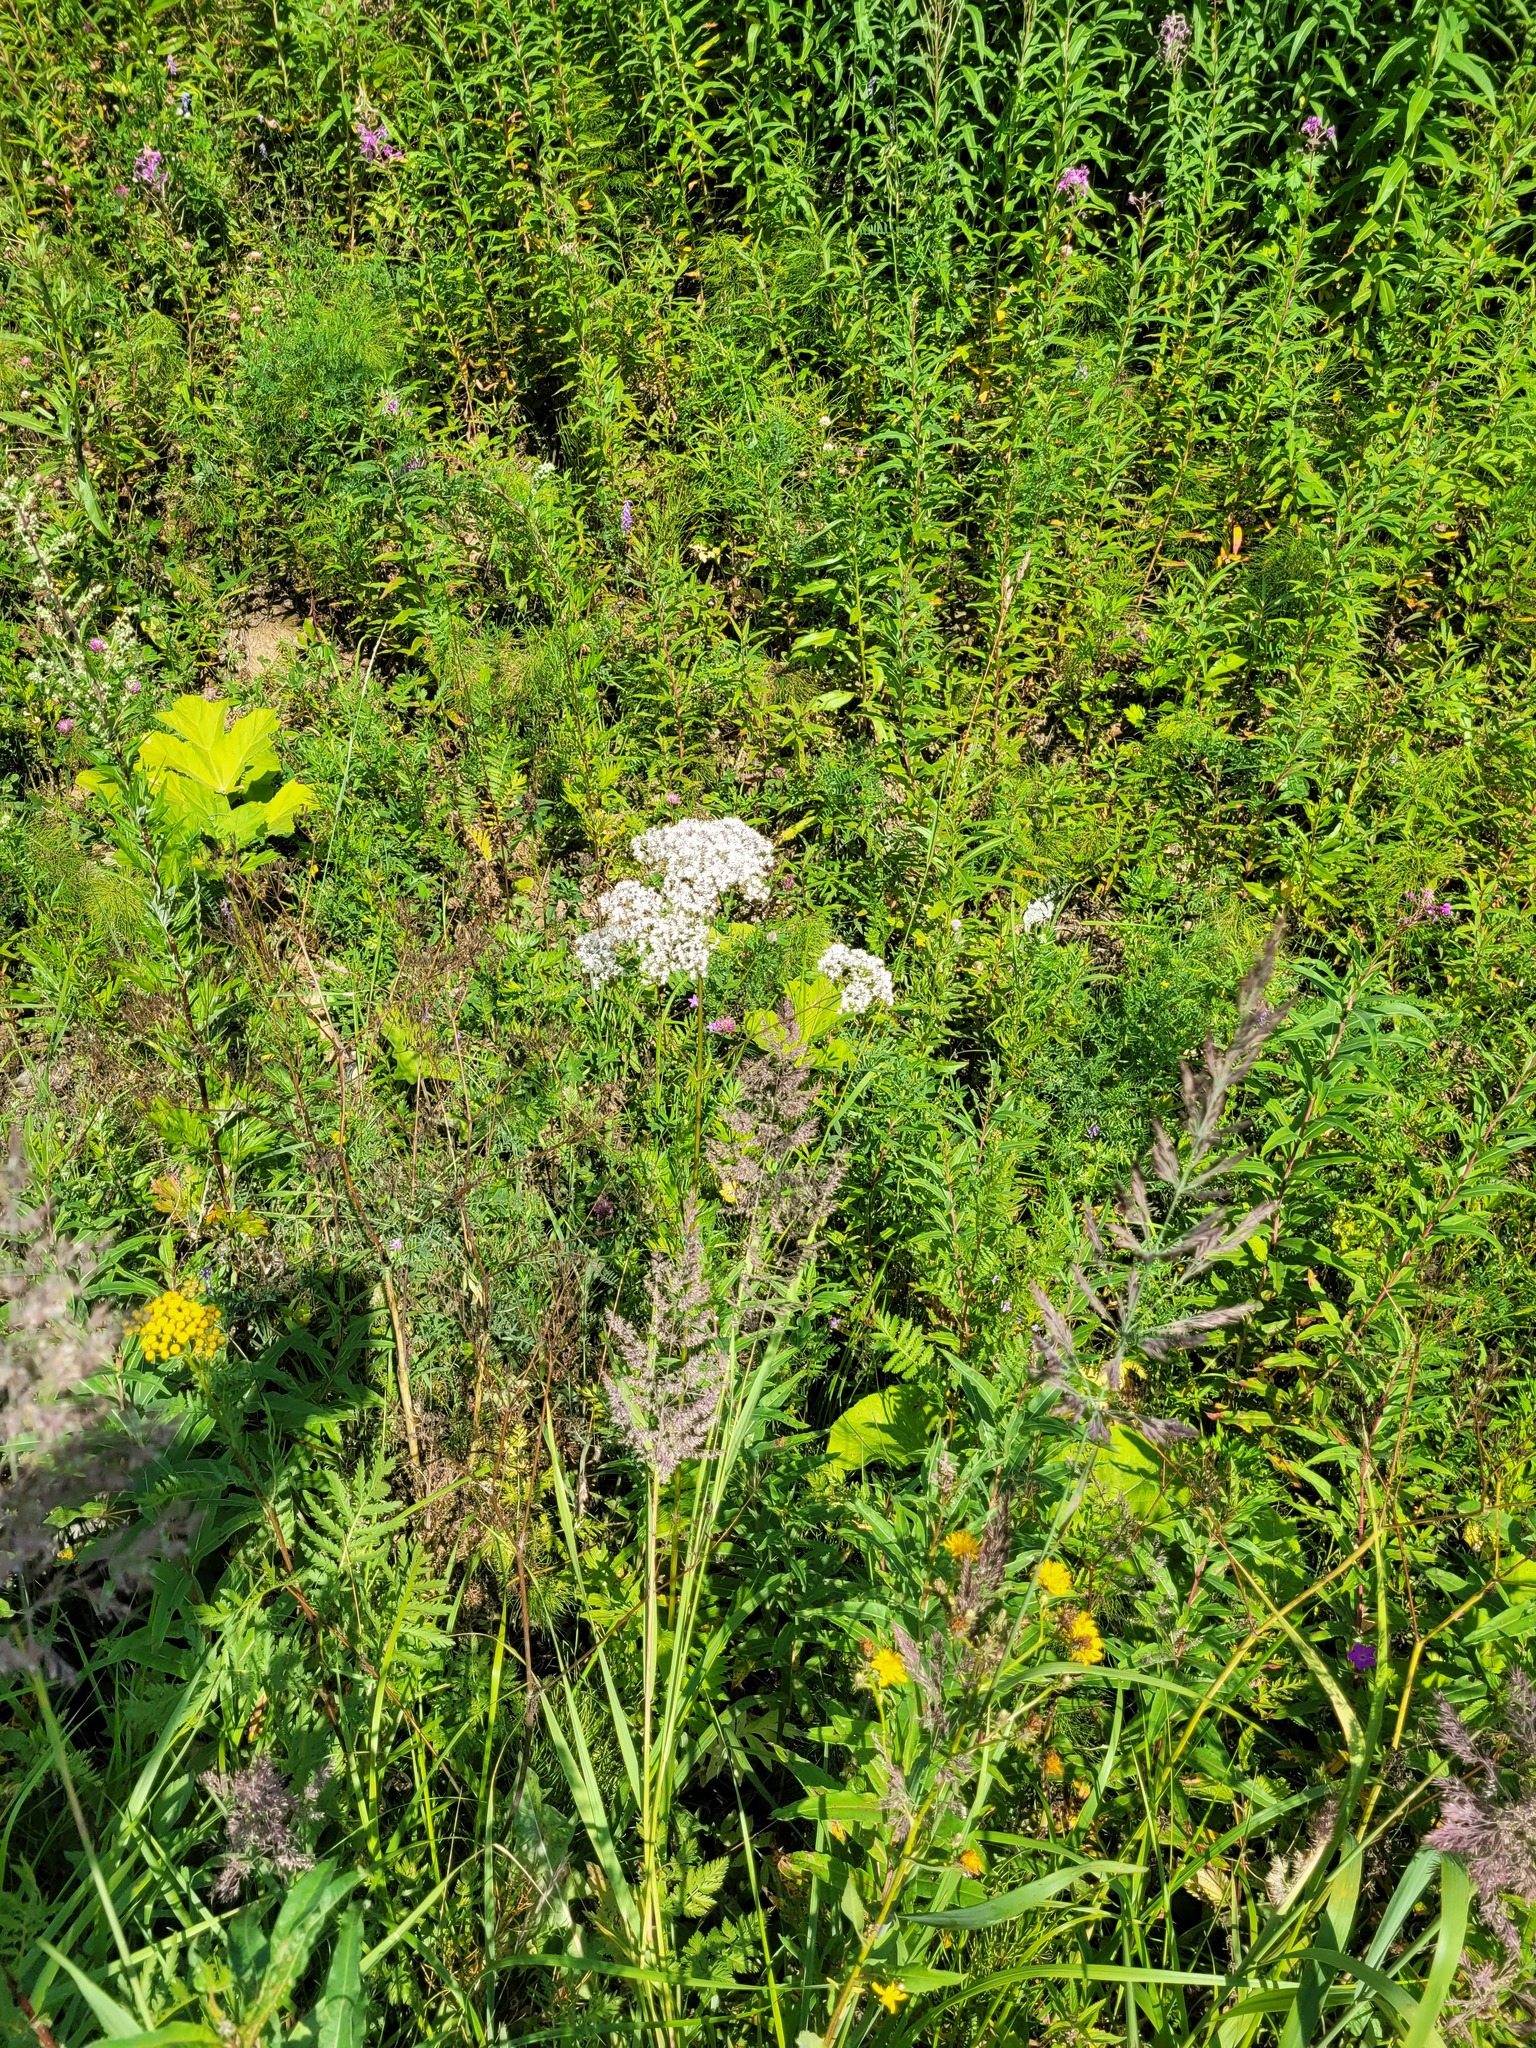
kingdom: Plantae
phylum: Tracheophyta
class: Magnoliopsida
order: Dipsacales
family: Caprifoliaceae
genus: Valeriana
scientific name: Valeriana officinalis
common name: Common valerian
